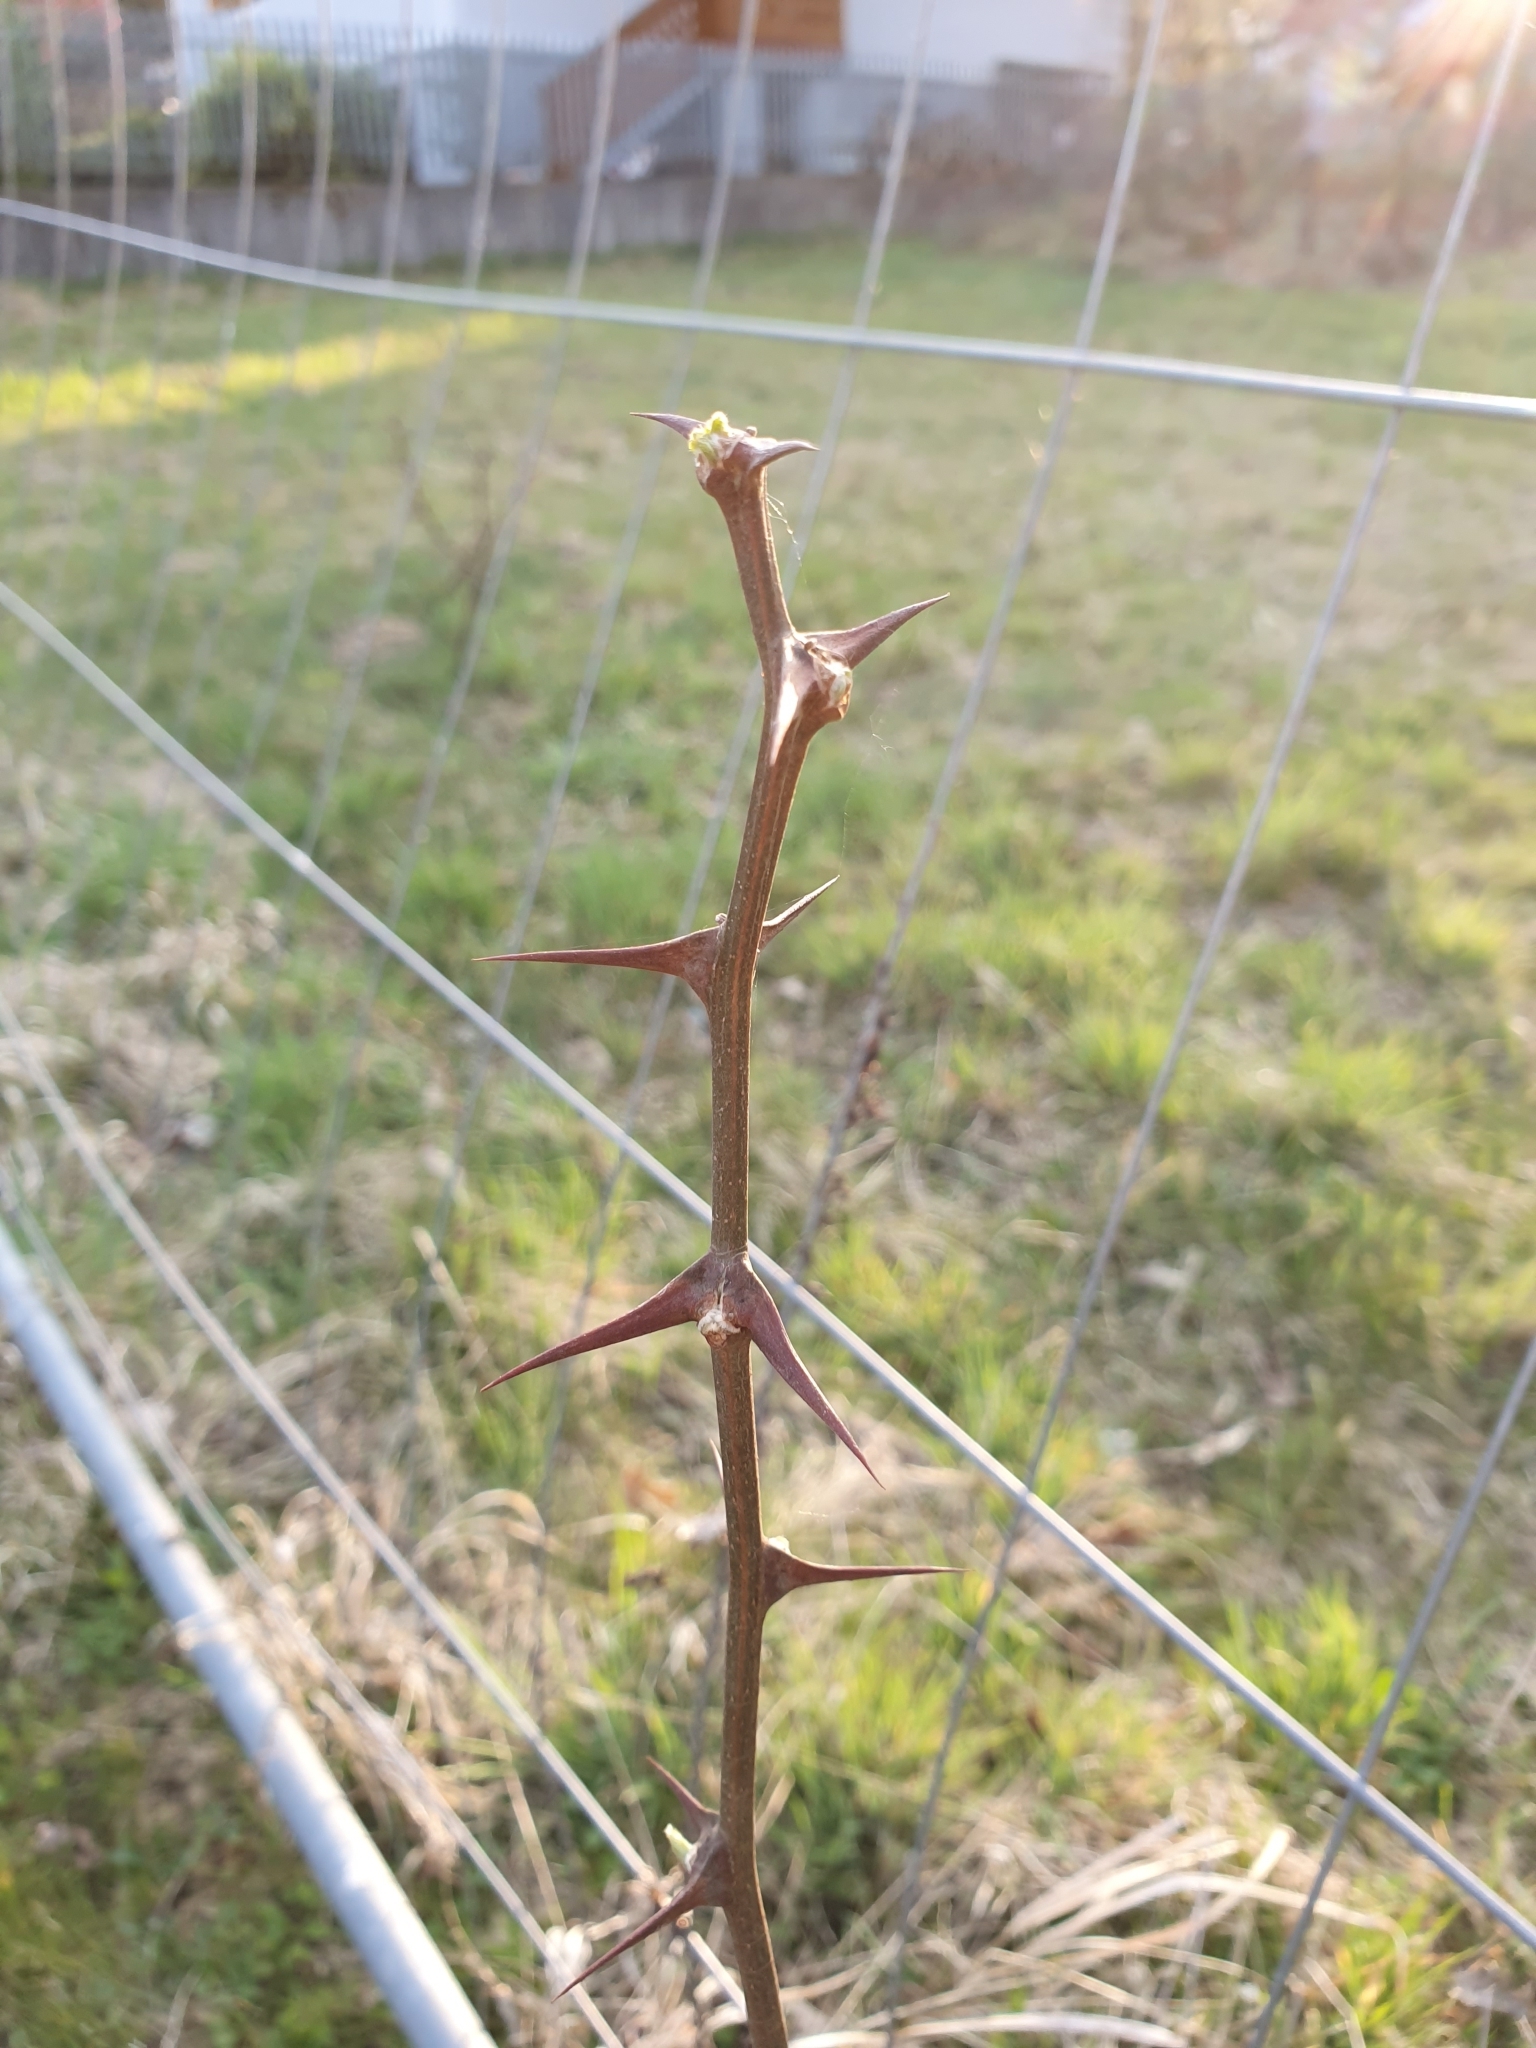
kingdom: Plantae
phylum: Tracheophyta
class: Magnoliopsida
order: Fabales
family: Fabaceae
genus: Robinia
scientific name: Robinia pseudoacacia
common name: Black locust
